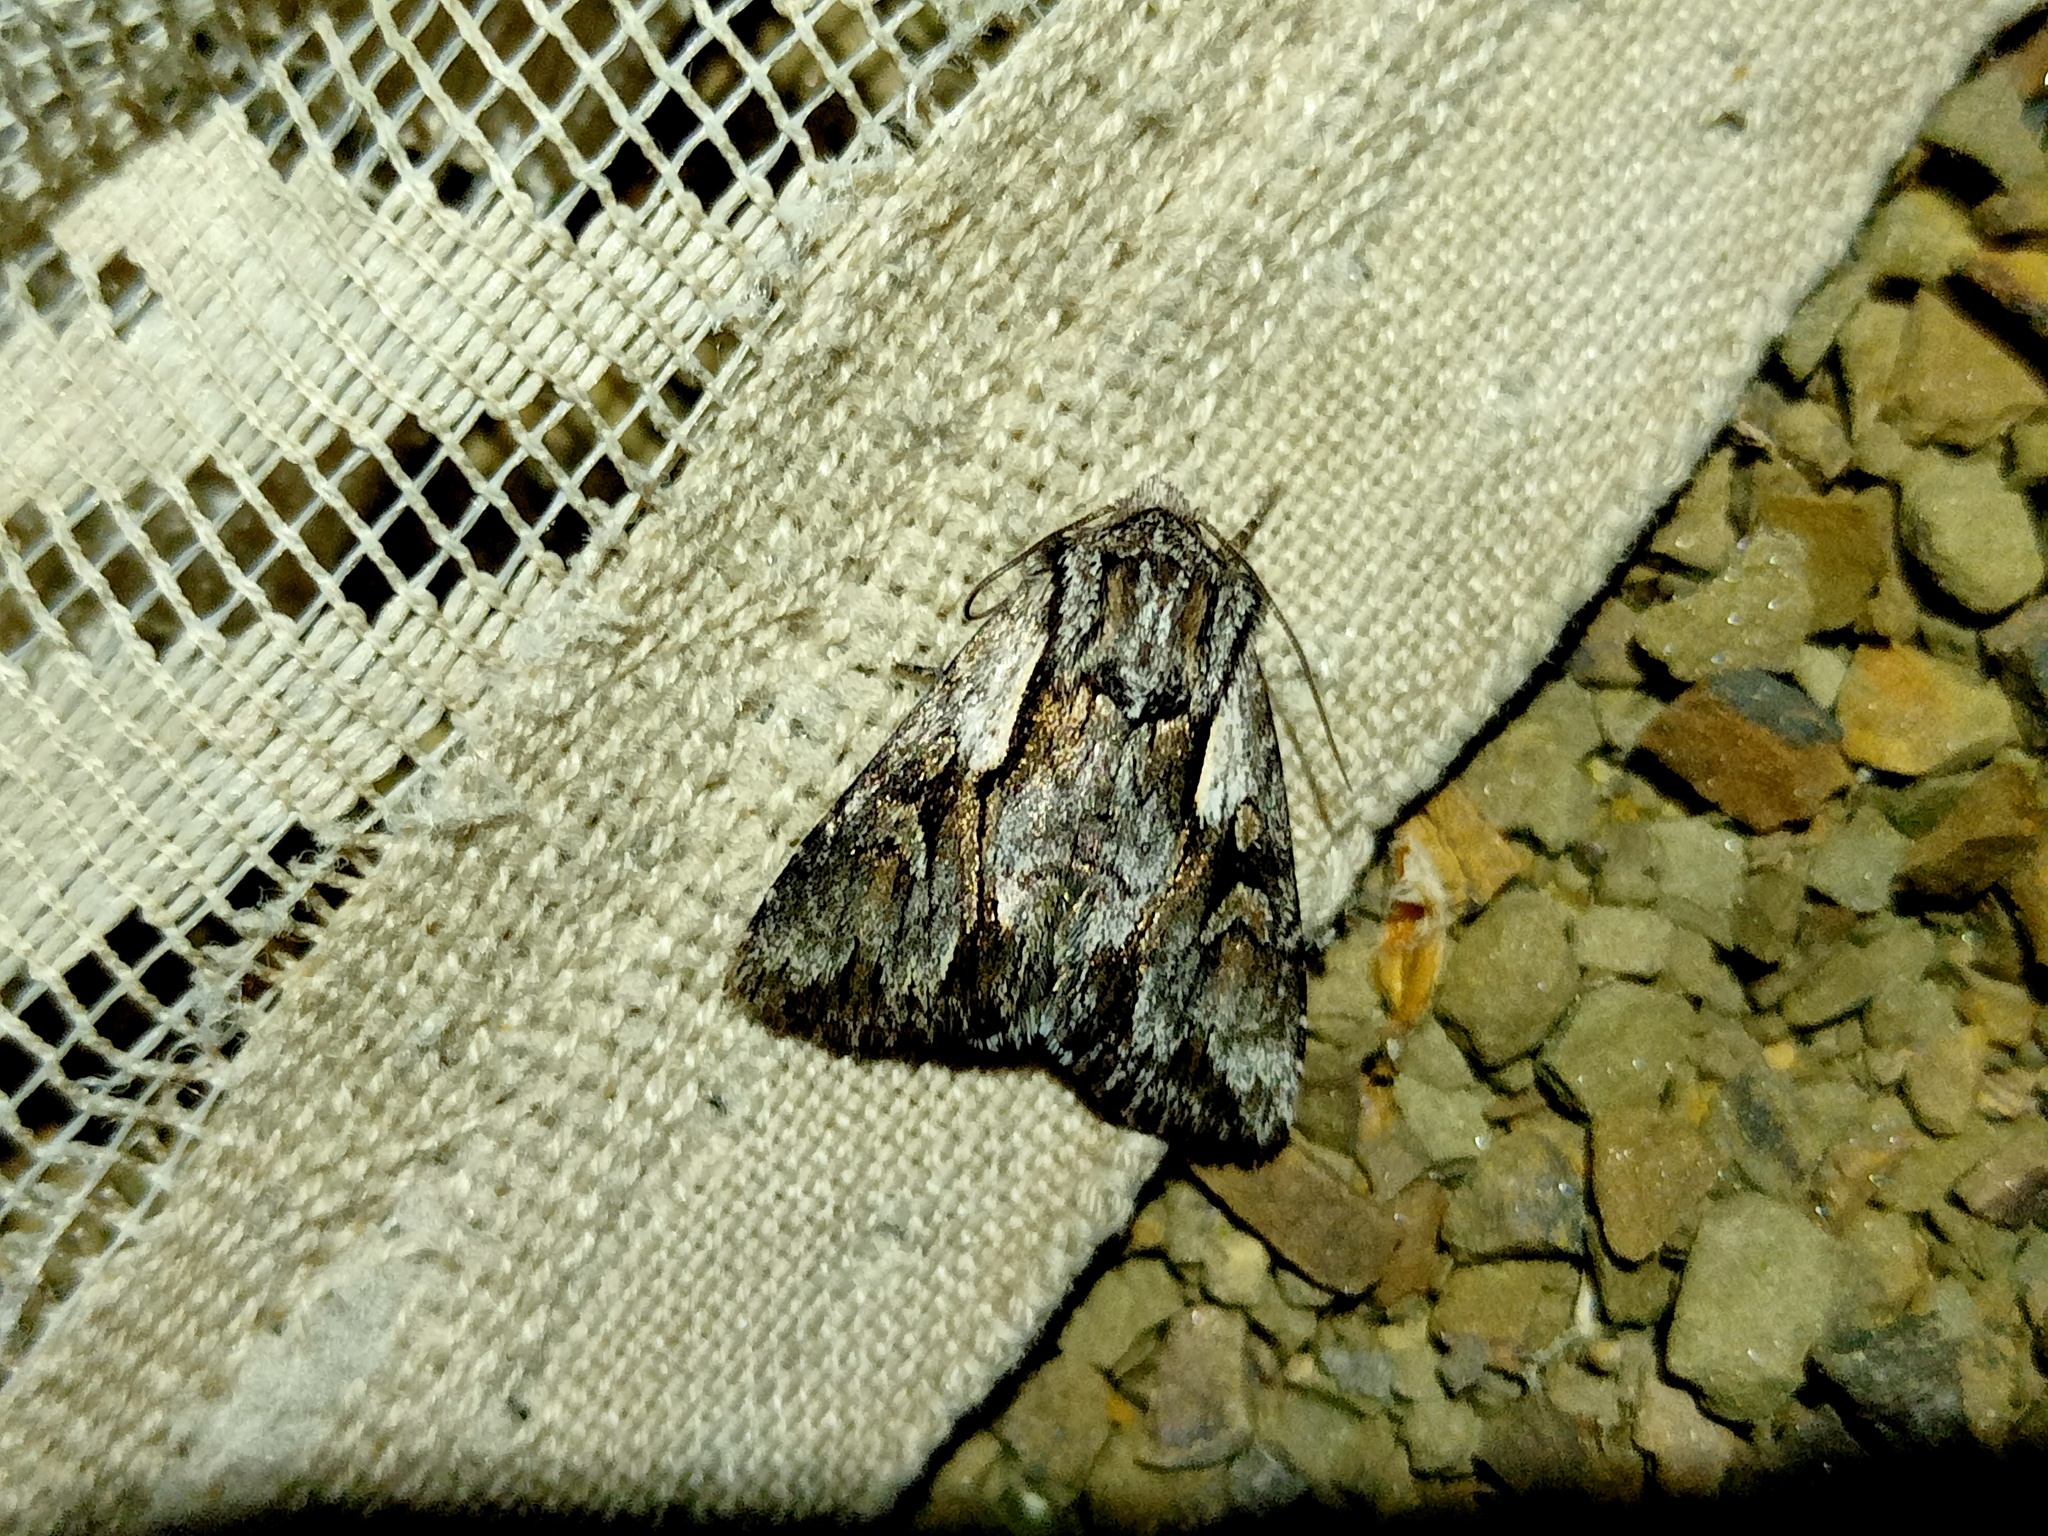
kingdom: Animalia
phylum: Arthropoda
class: Insecta
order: Lepidoptera
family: Noctuidae
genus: Chloantha
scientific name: Chloantha hyperici
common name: Pale-shouldered cloud
